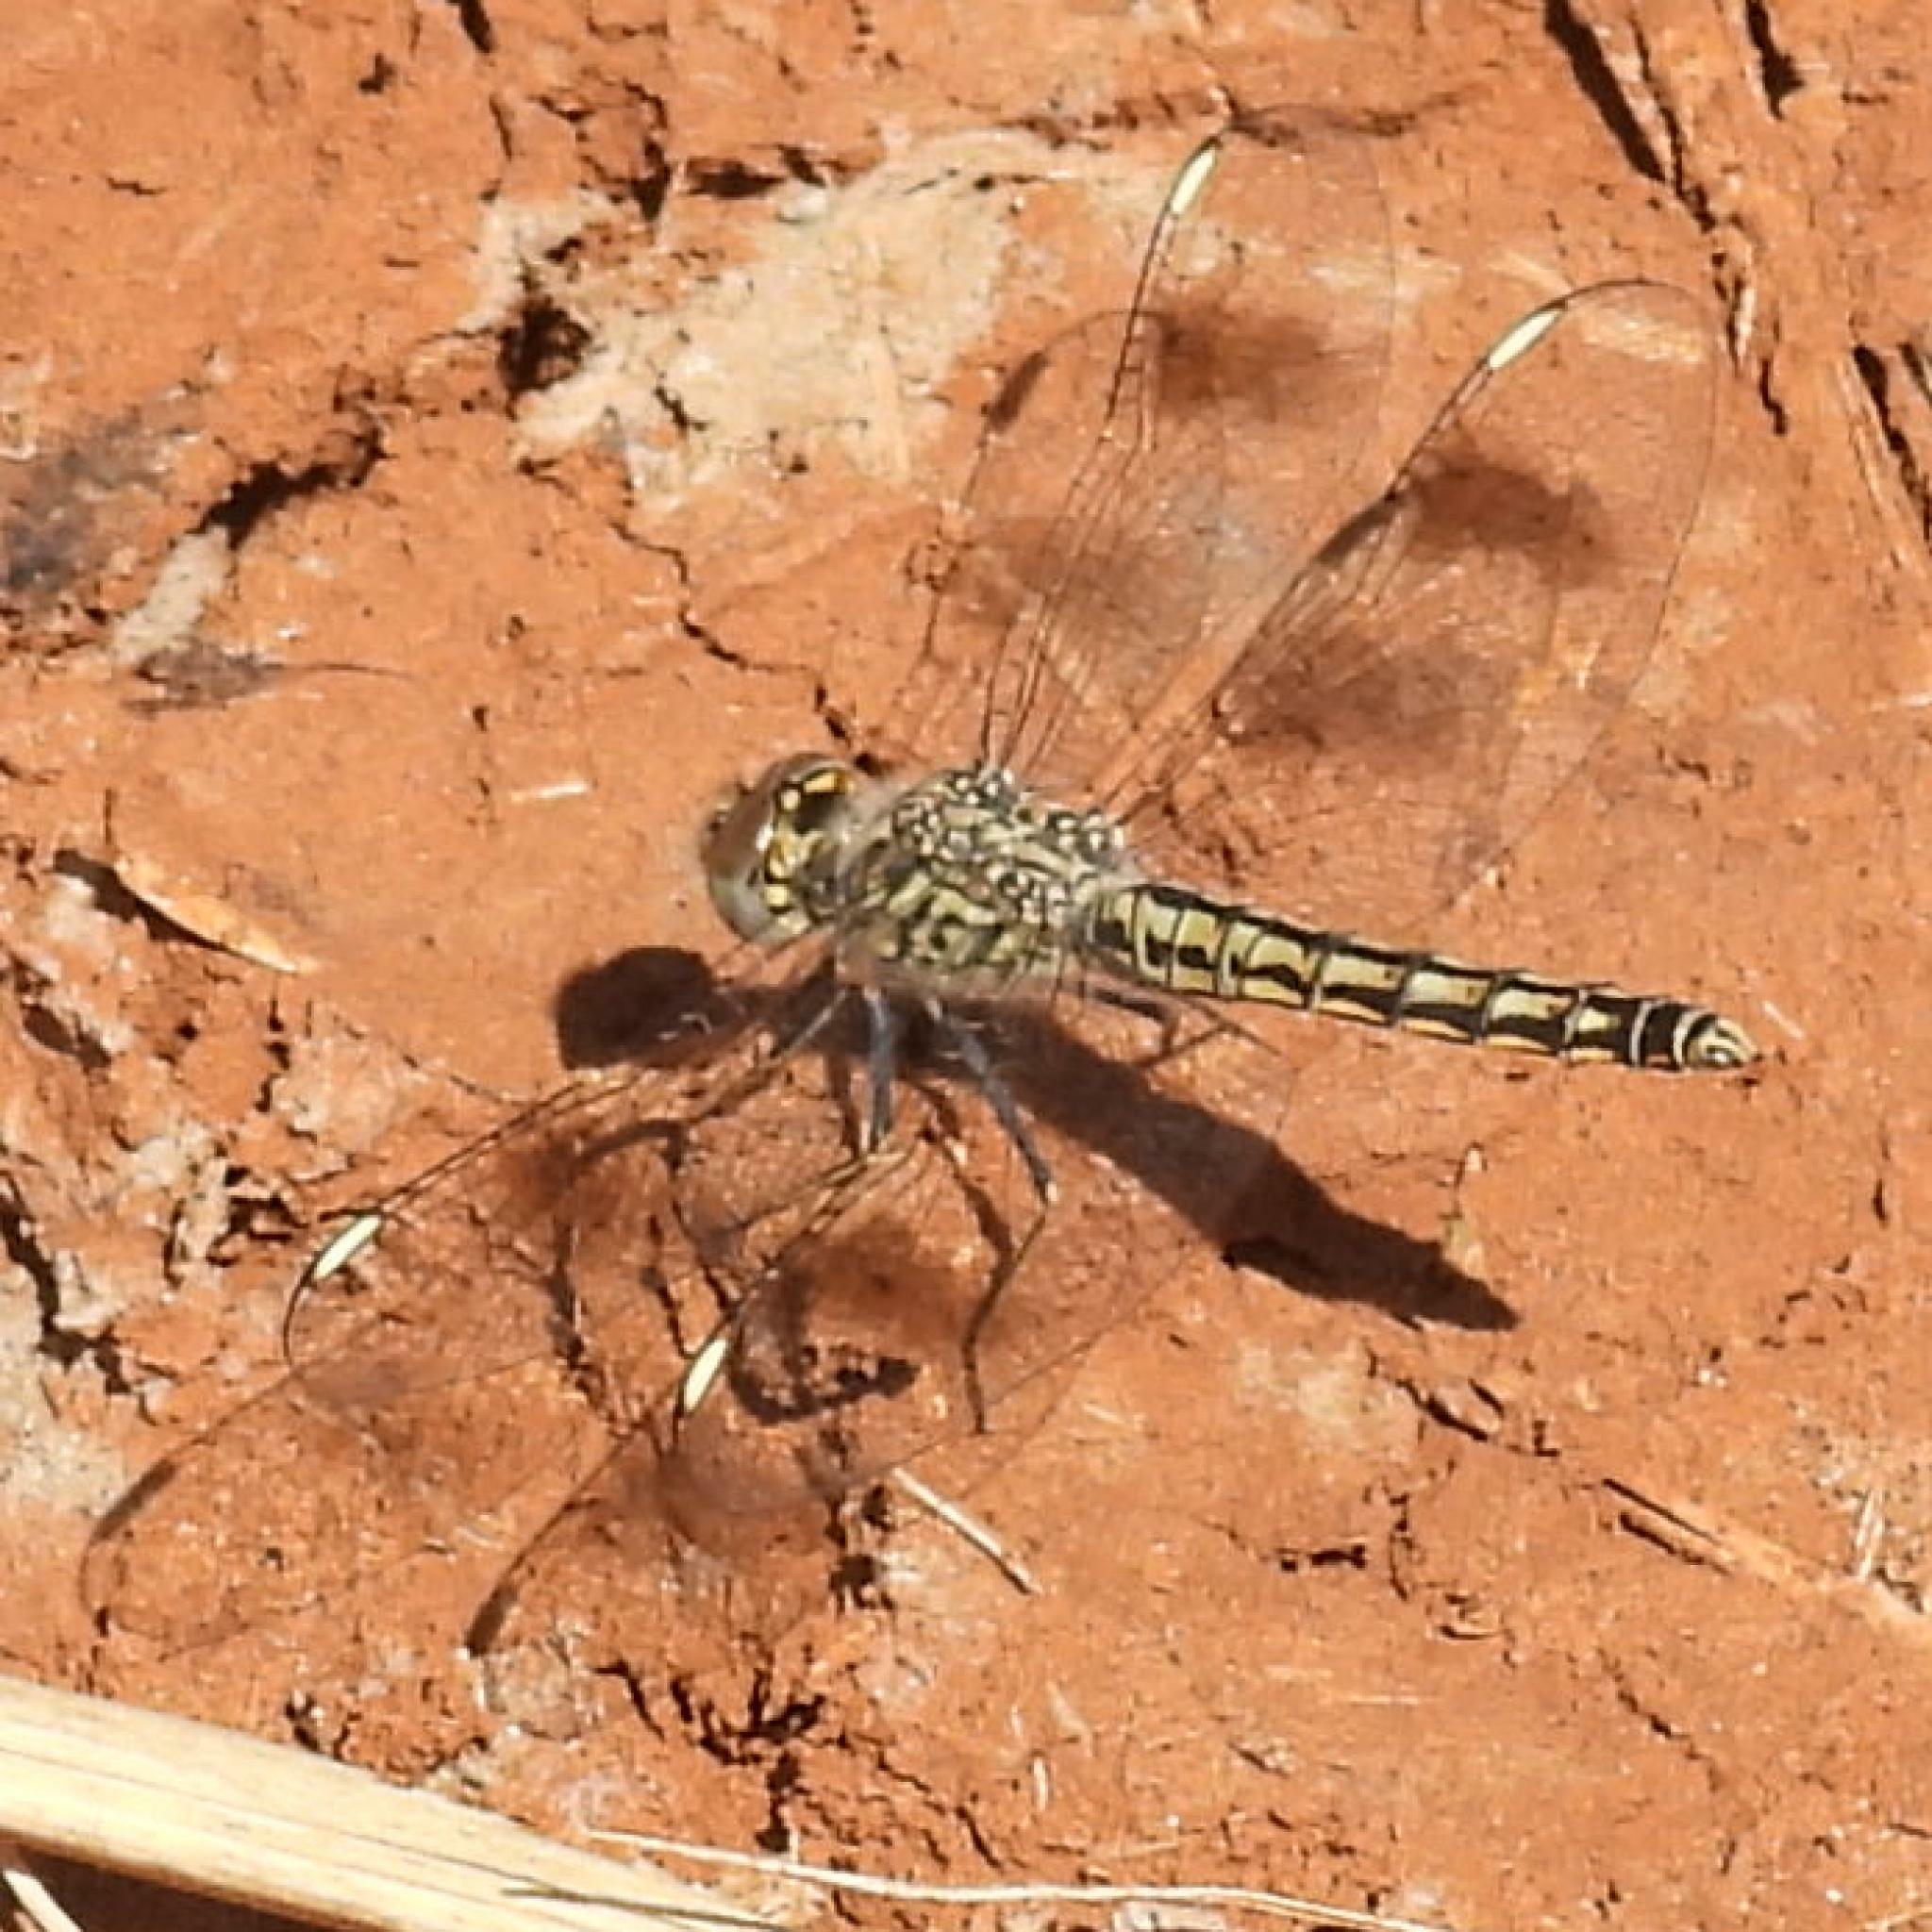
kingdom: Animalia
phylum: Arthropoda
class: Insecta
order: Odonata
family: Libellulidae
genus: Brachythemis
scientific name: Brachythemis leucosticta
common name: Banded groundling
